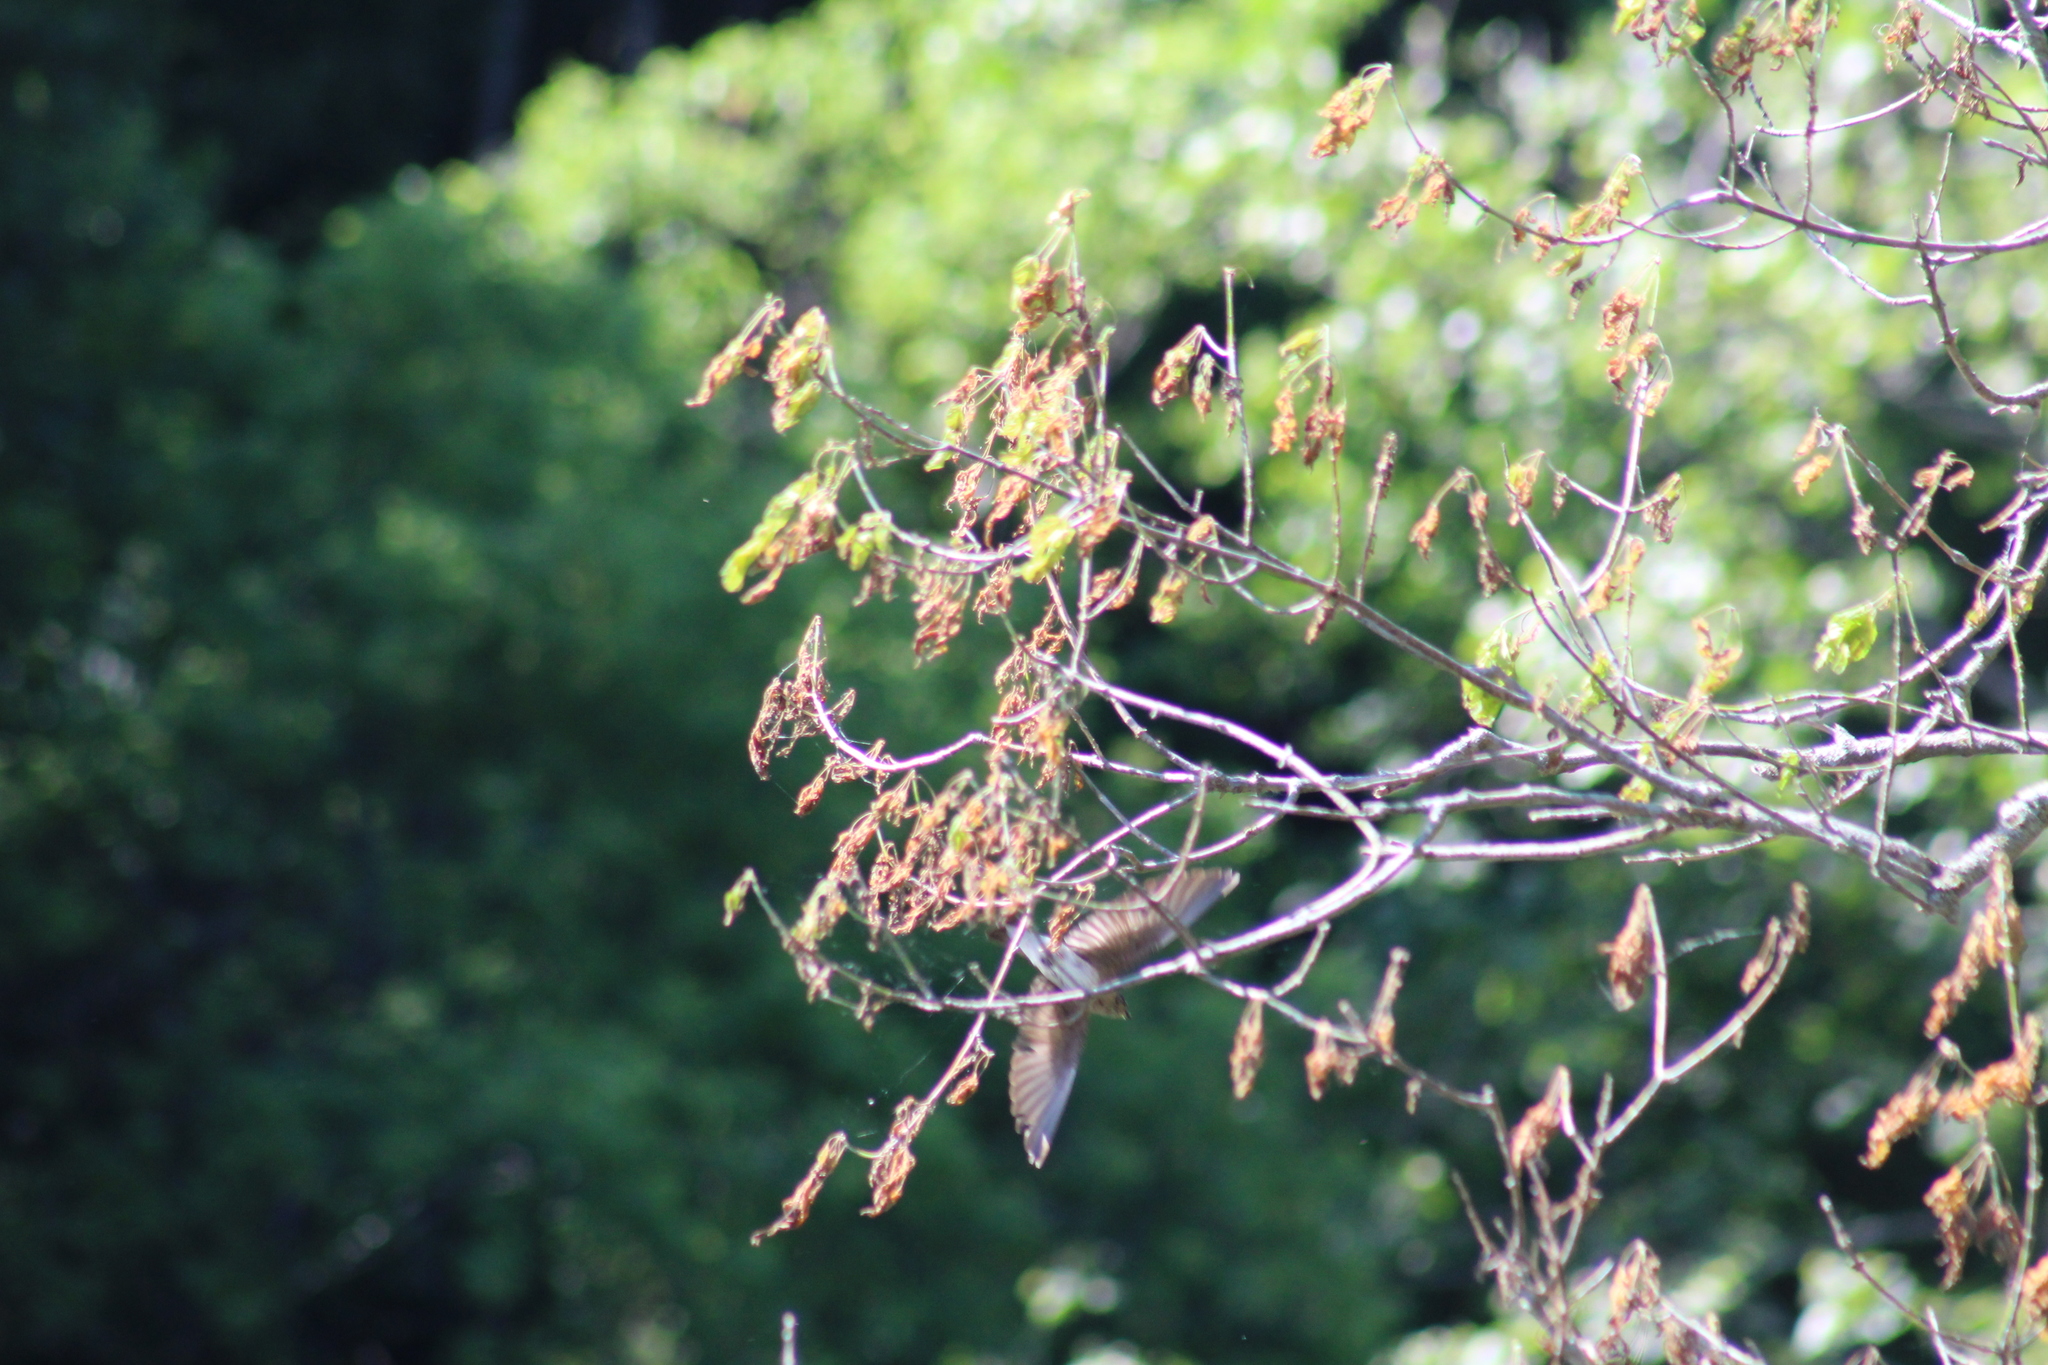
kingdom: Animalia
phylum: Chordata
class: Aves
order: Passeriformes
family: Hirundinidae
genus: Stelgidopteryx
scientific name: Stelgidopteryx serripennis
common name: Northern rough-winged swallow
